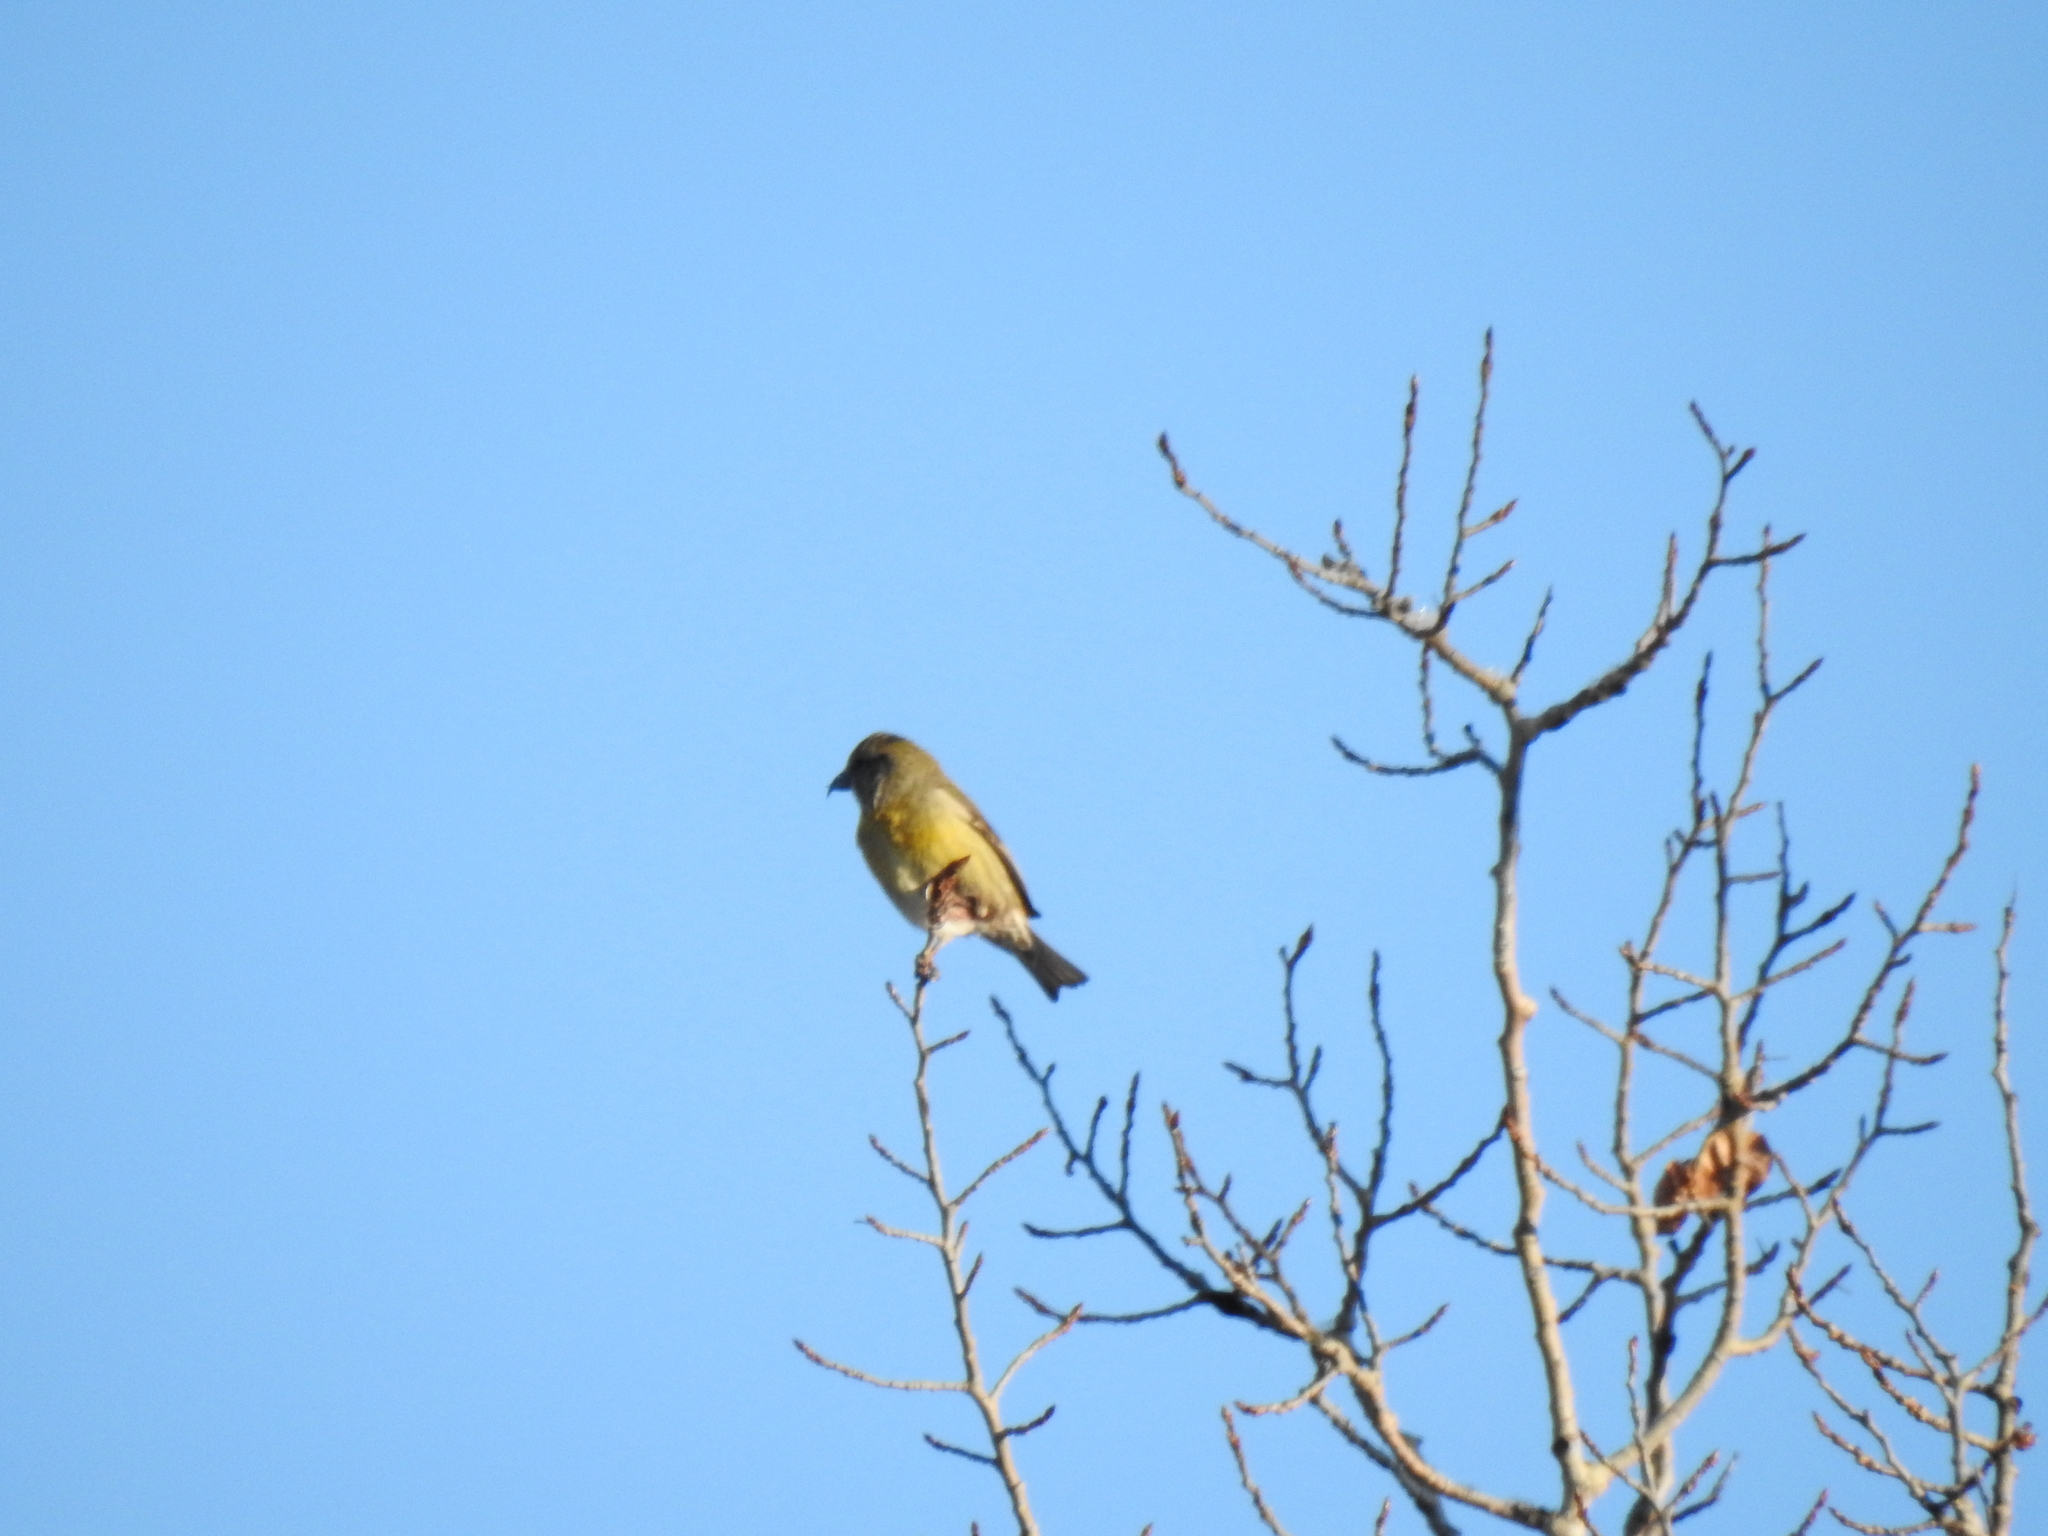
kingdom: Animalia
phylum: Chordata
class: Aves
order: Passeriformes
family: Fringillidae
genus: Loxia
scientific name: Loxia curvirostra
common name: Red crossbill
